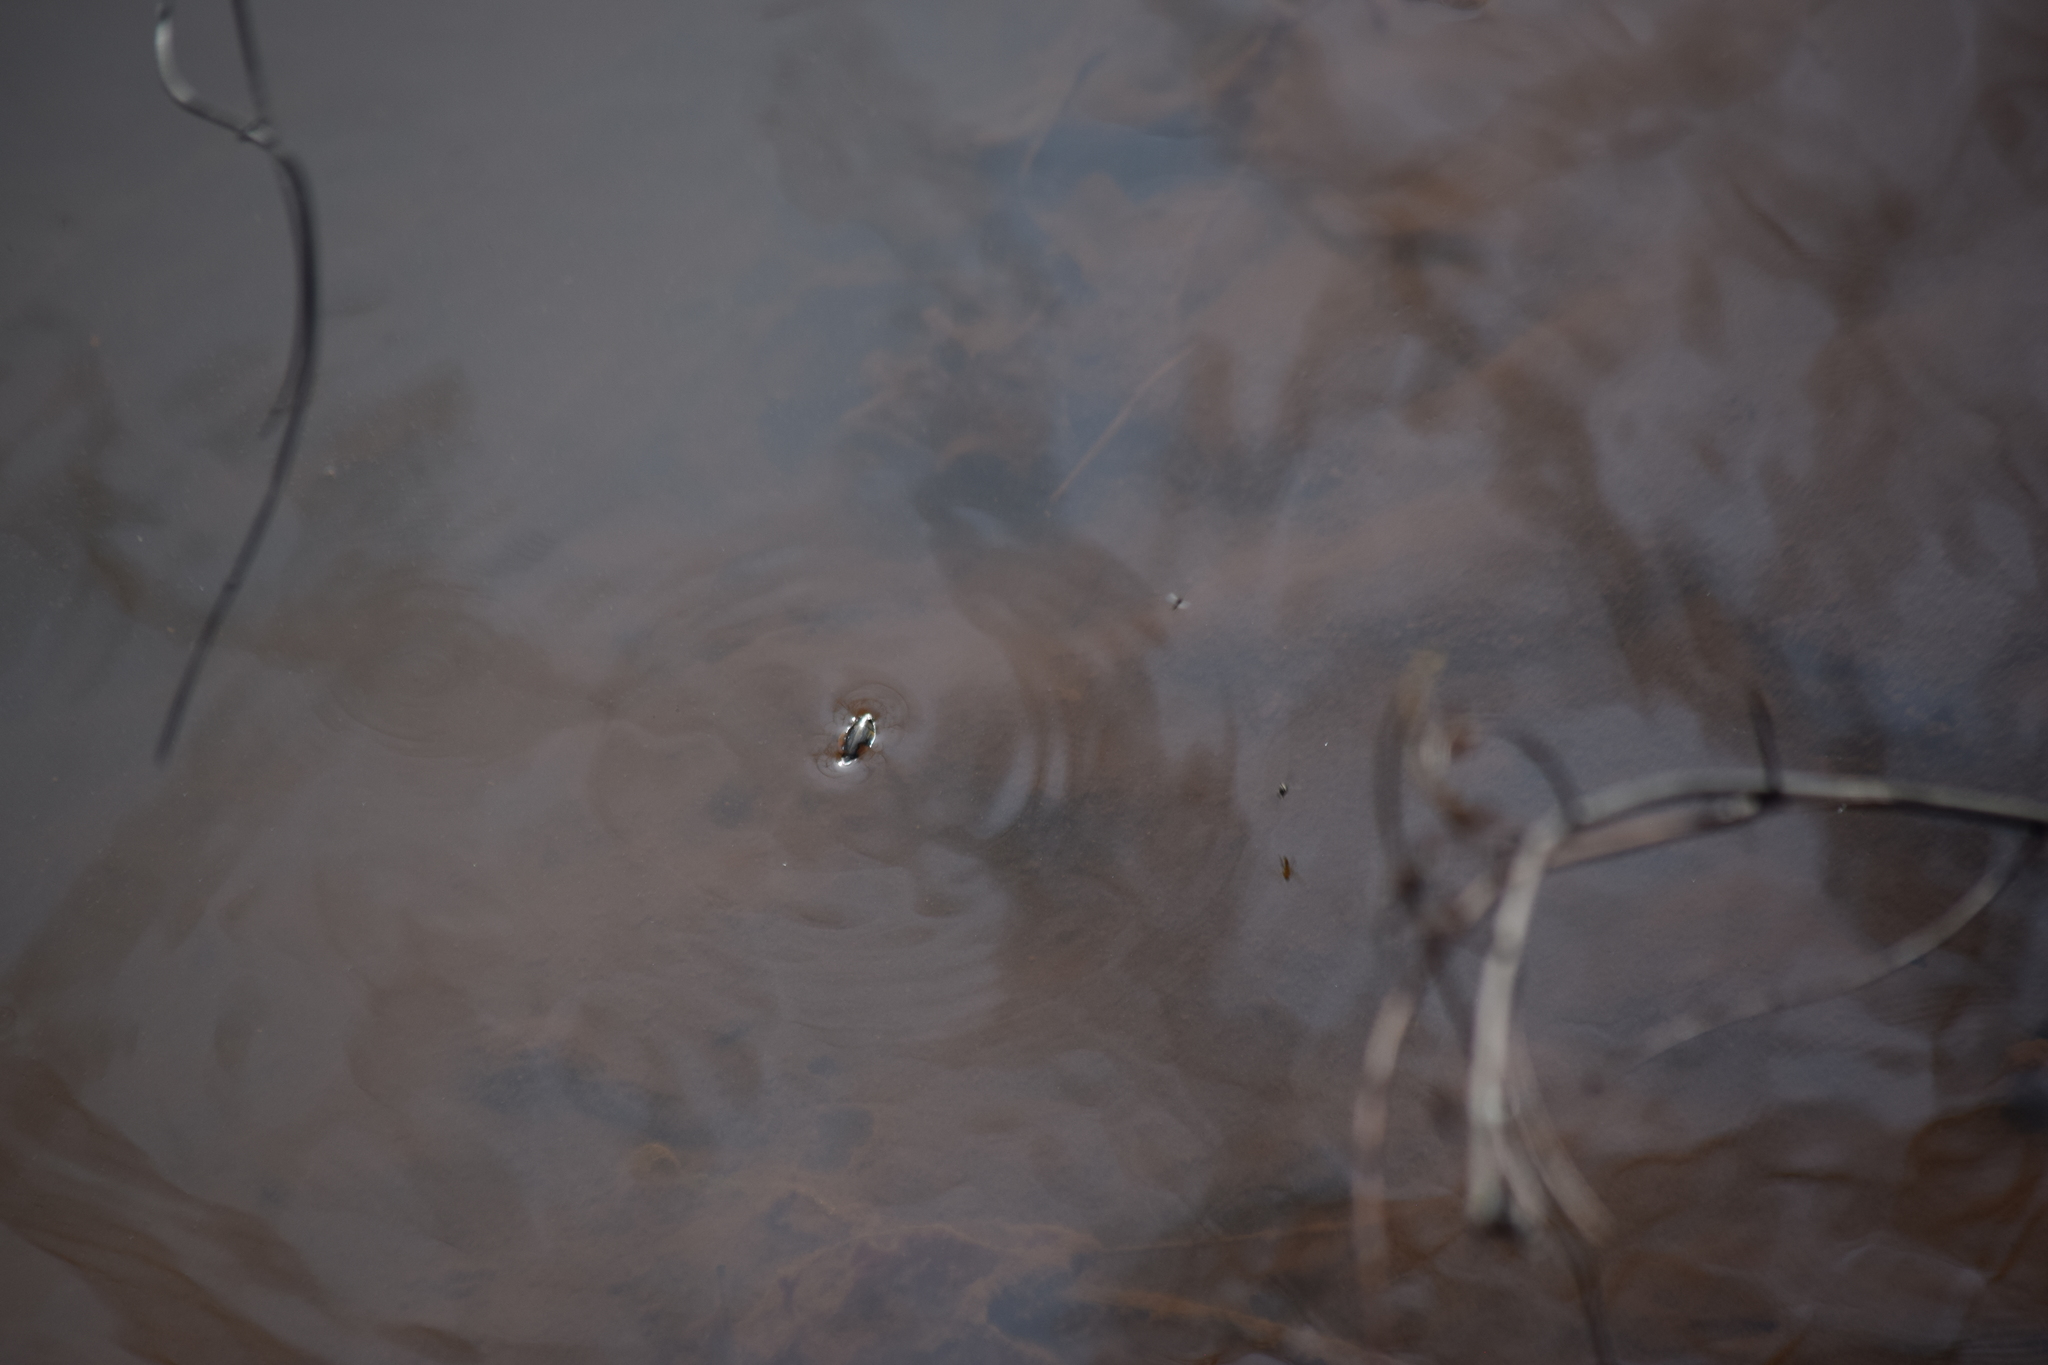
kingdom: Animalia
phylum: Arthropoda
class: Insecta
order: Coleoptera
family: Gyrinidae
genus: Dineutus
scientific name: Dineutus
